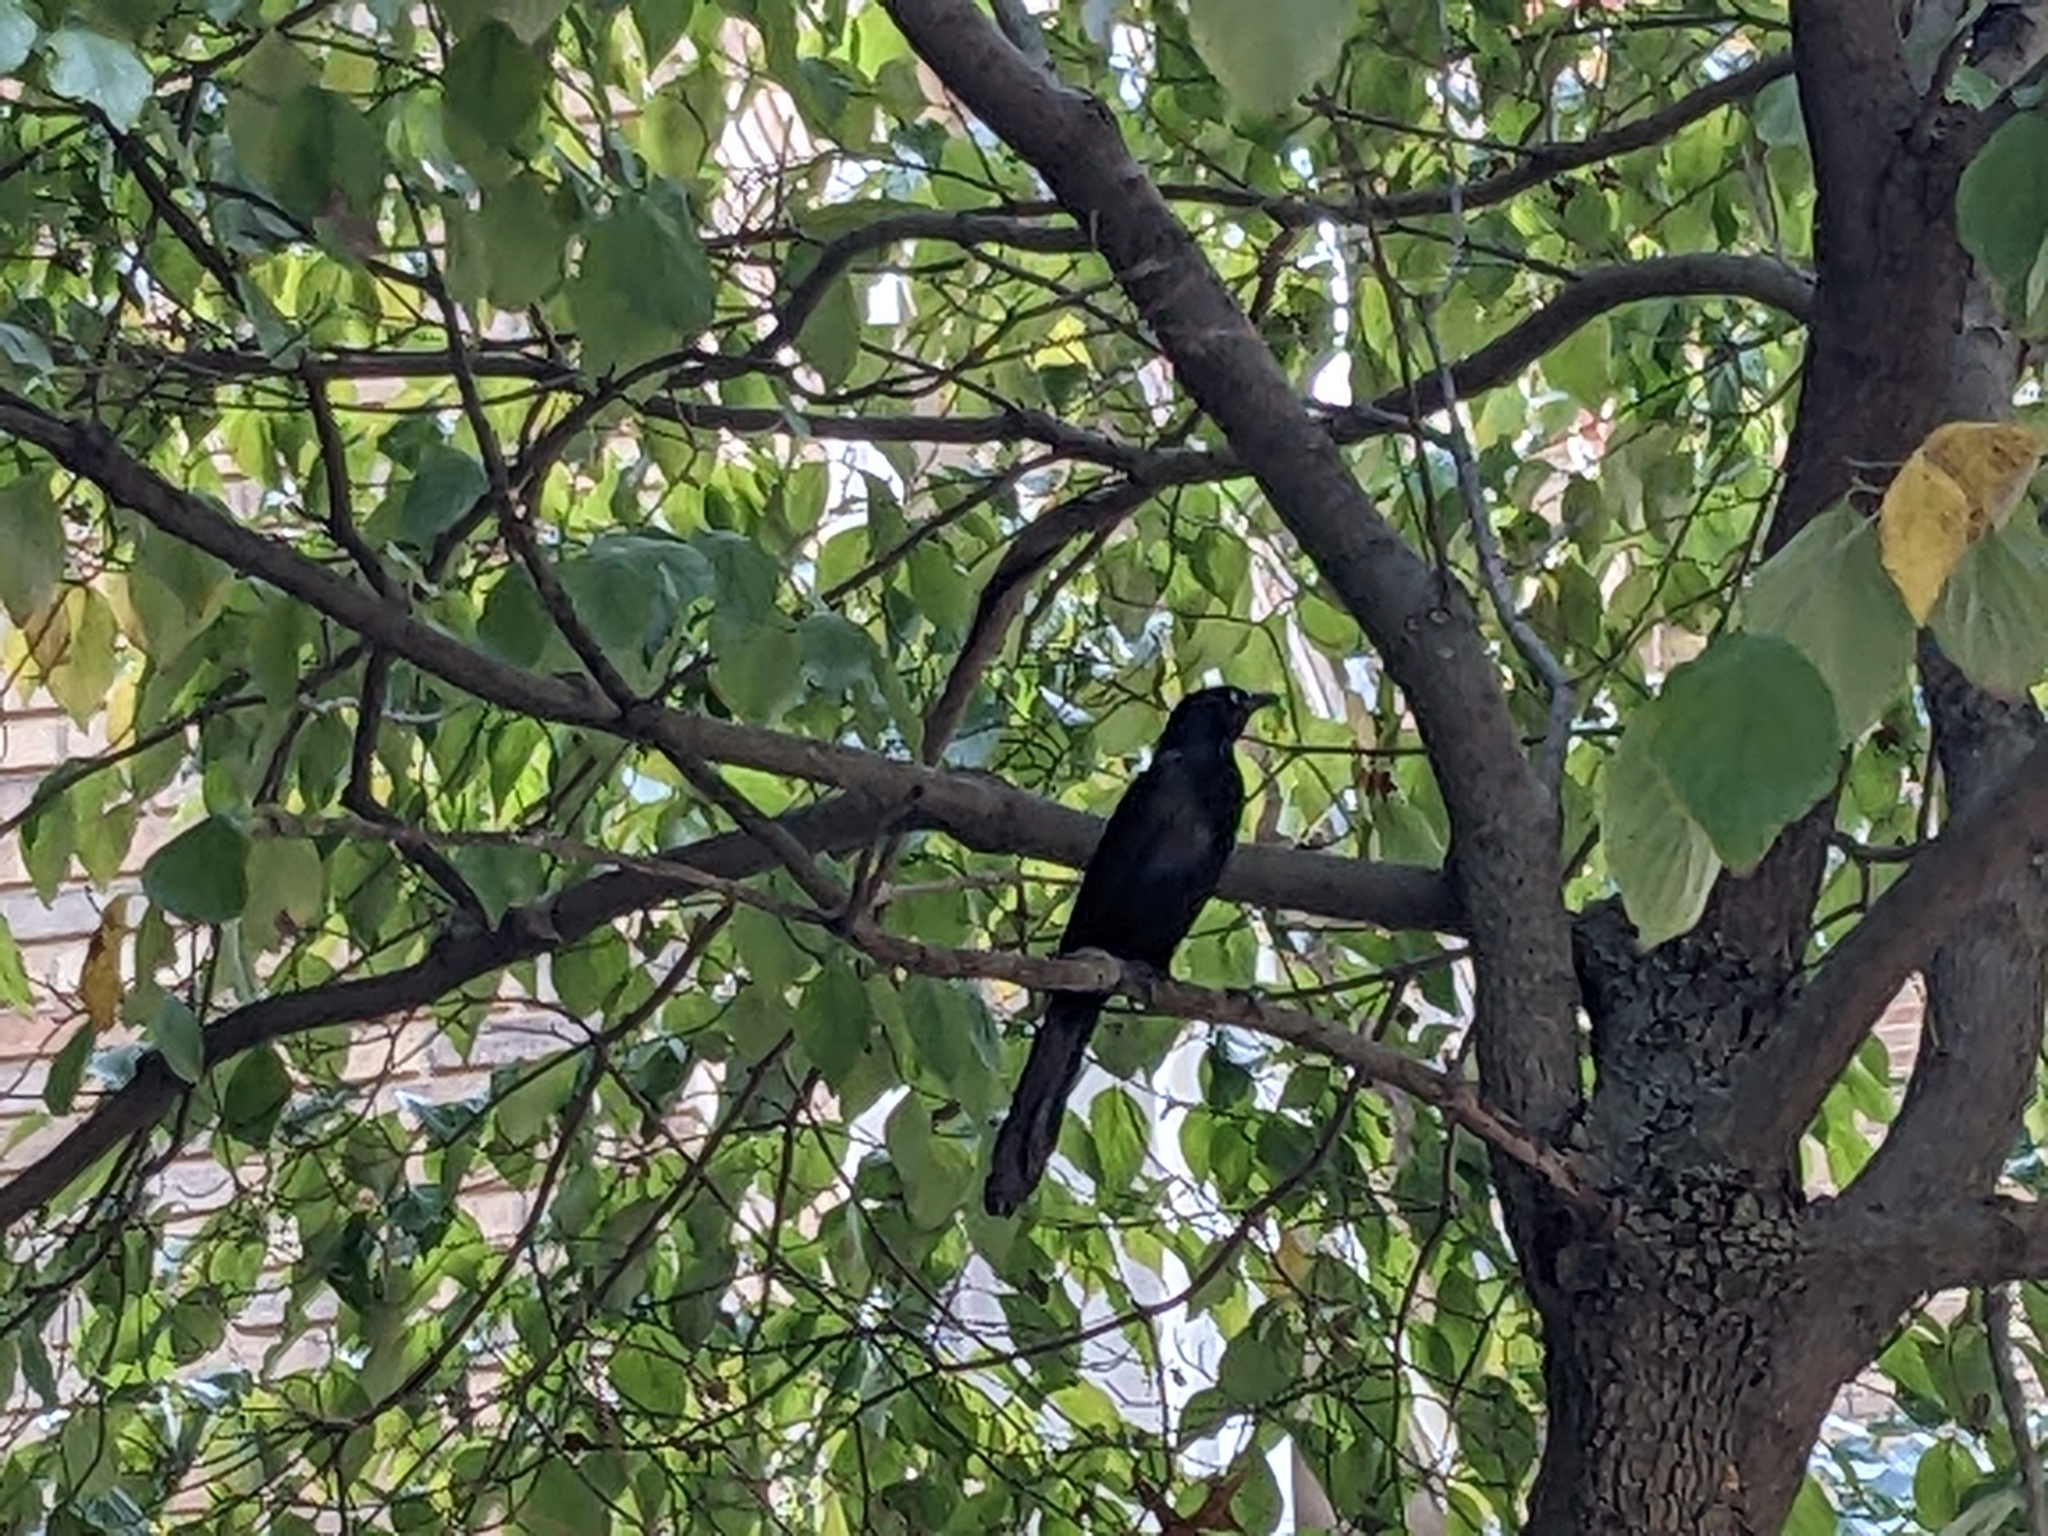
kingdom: Animalia
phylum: Chordata
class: Aves
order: Passeriformes
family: Icteridae
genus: Quiscalus
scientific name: Quiscalus quiscula
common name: Common grackle
